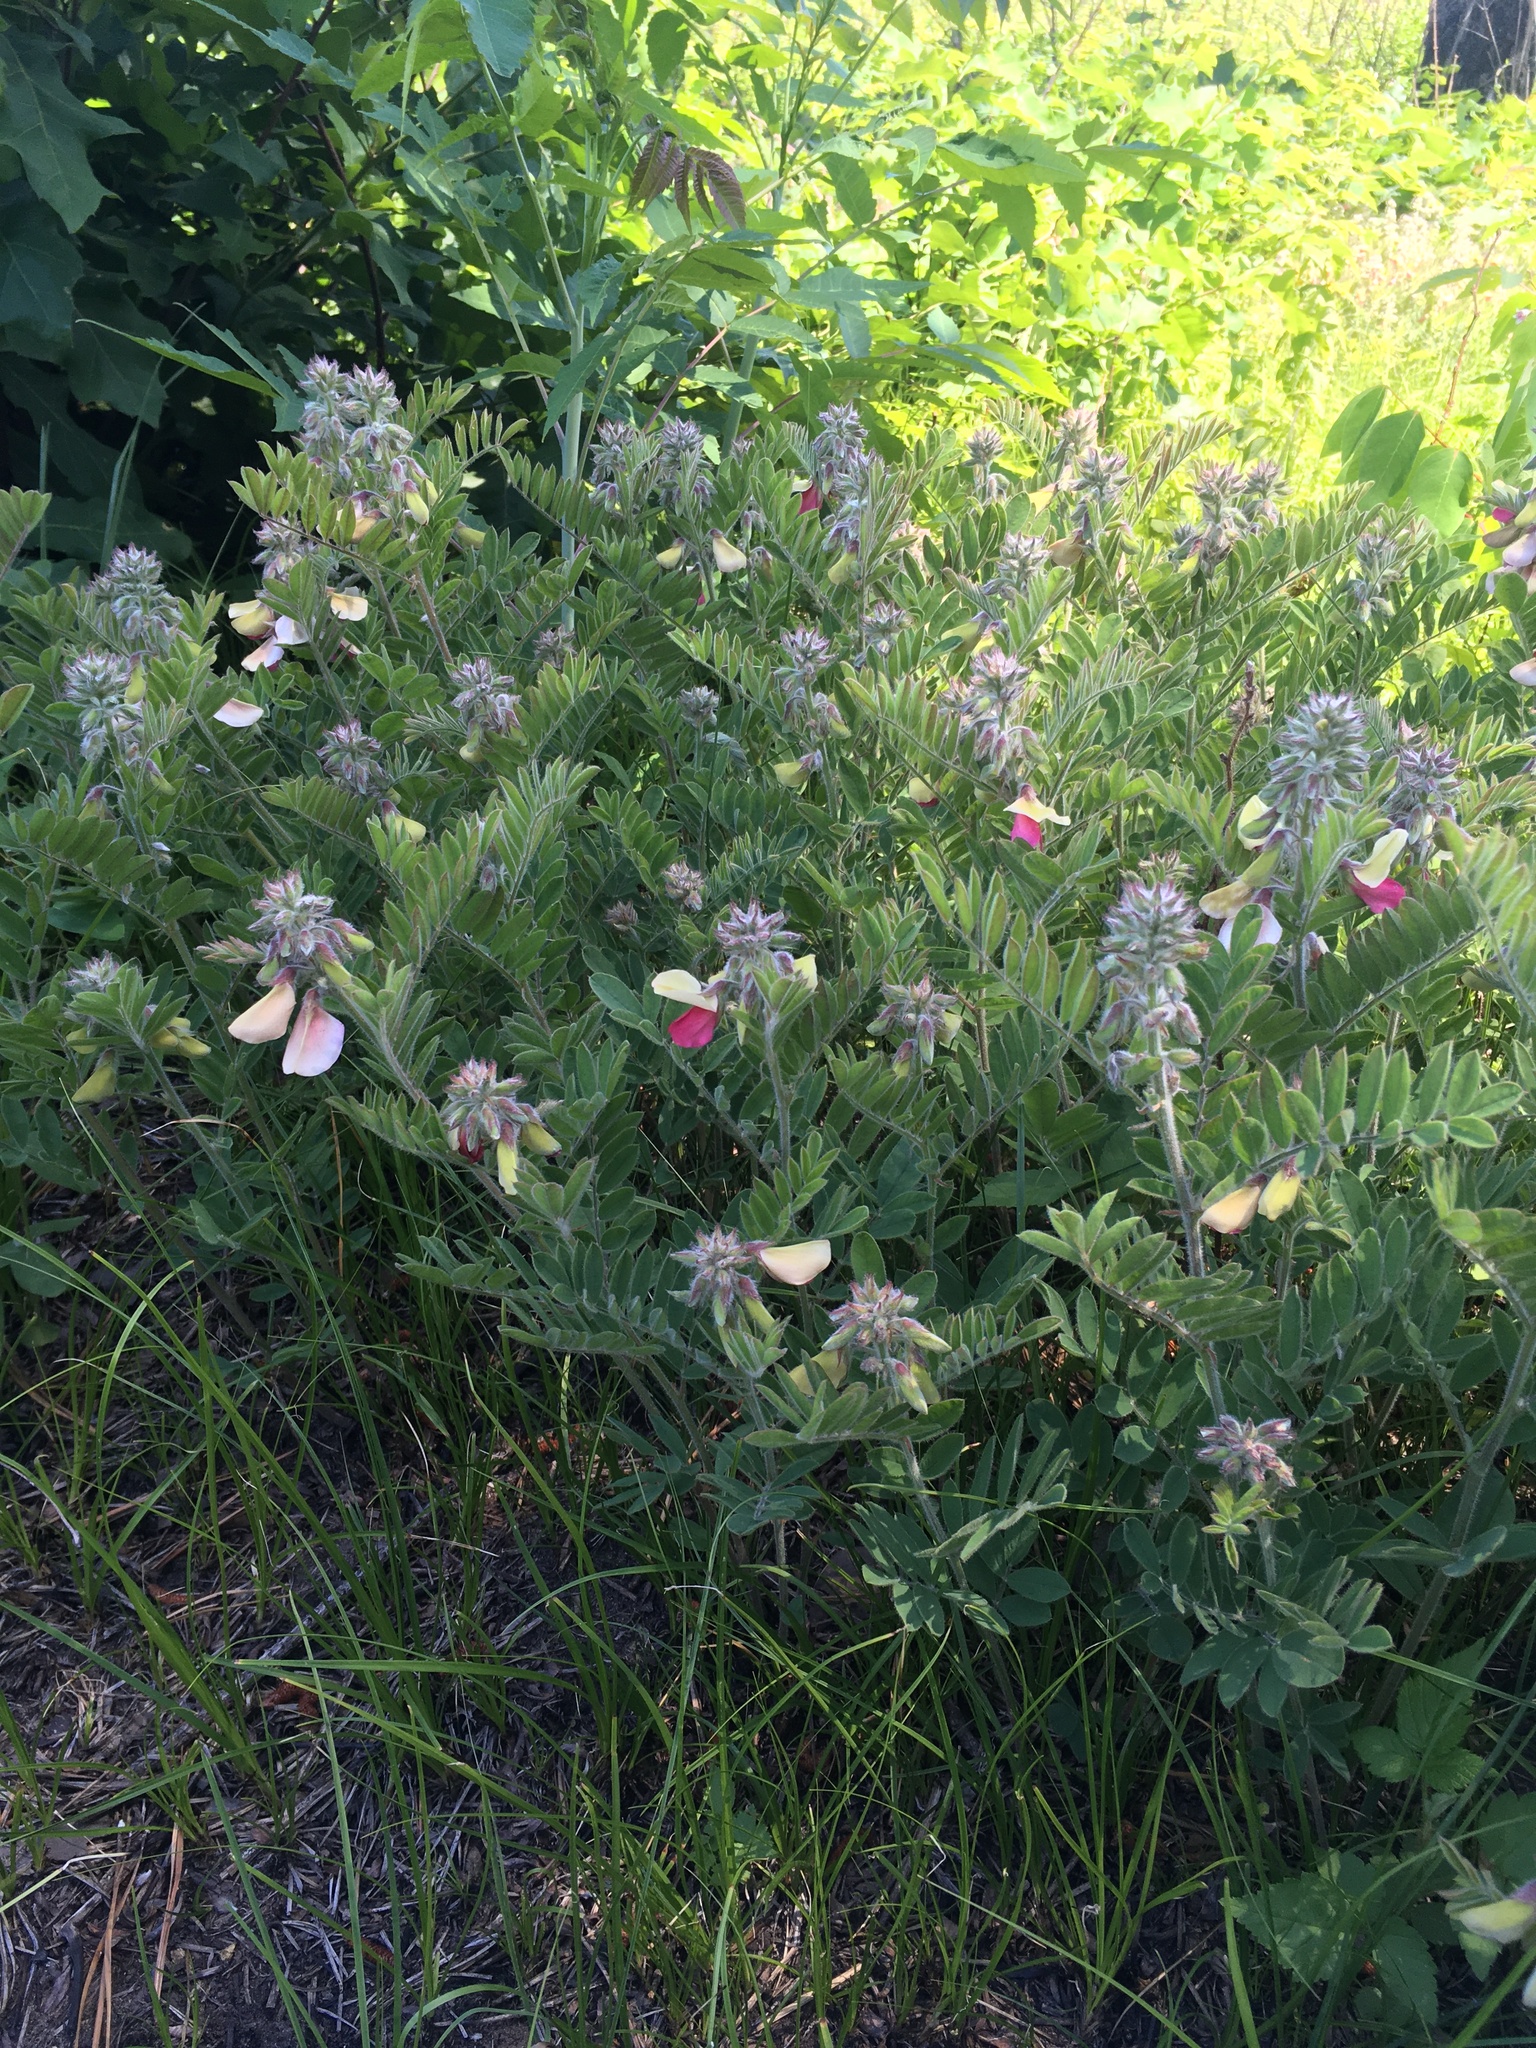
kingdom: Plantae
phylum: Tracheophyta
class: Magnoliopsida
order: Fabales
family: Fabaceae
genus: Tephrosia
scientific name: Tephrosia virginiana
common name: Rabbit-pea
